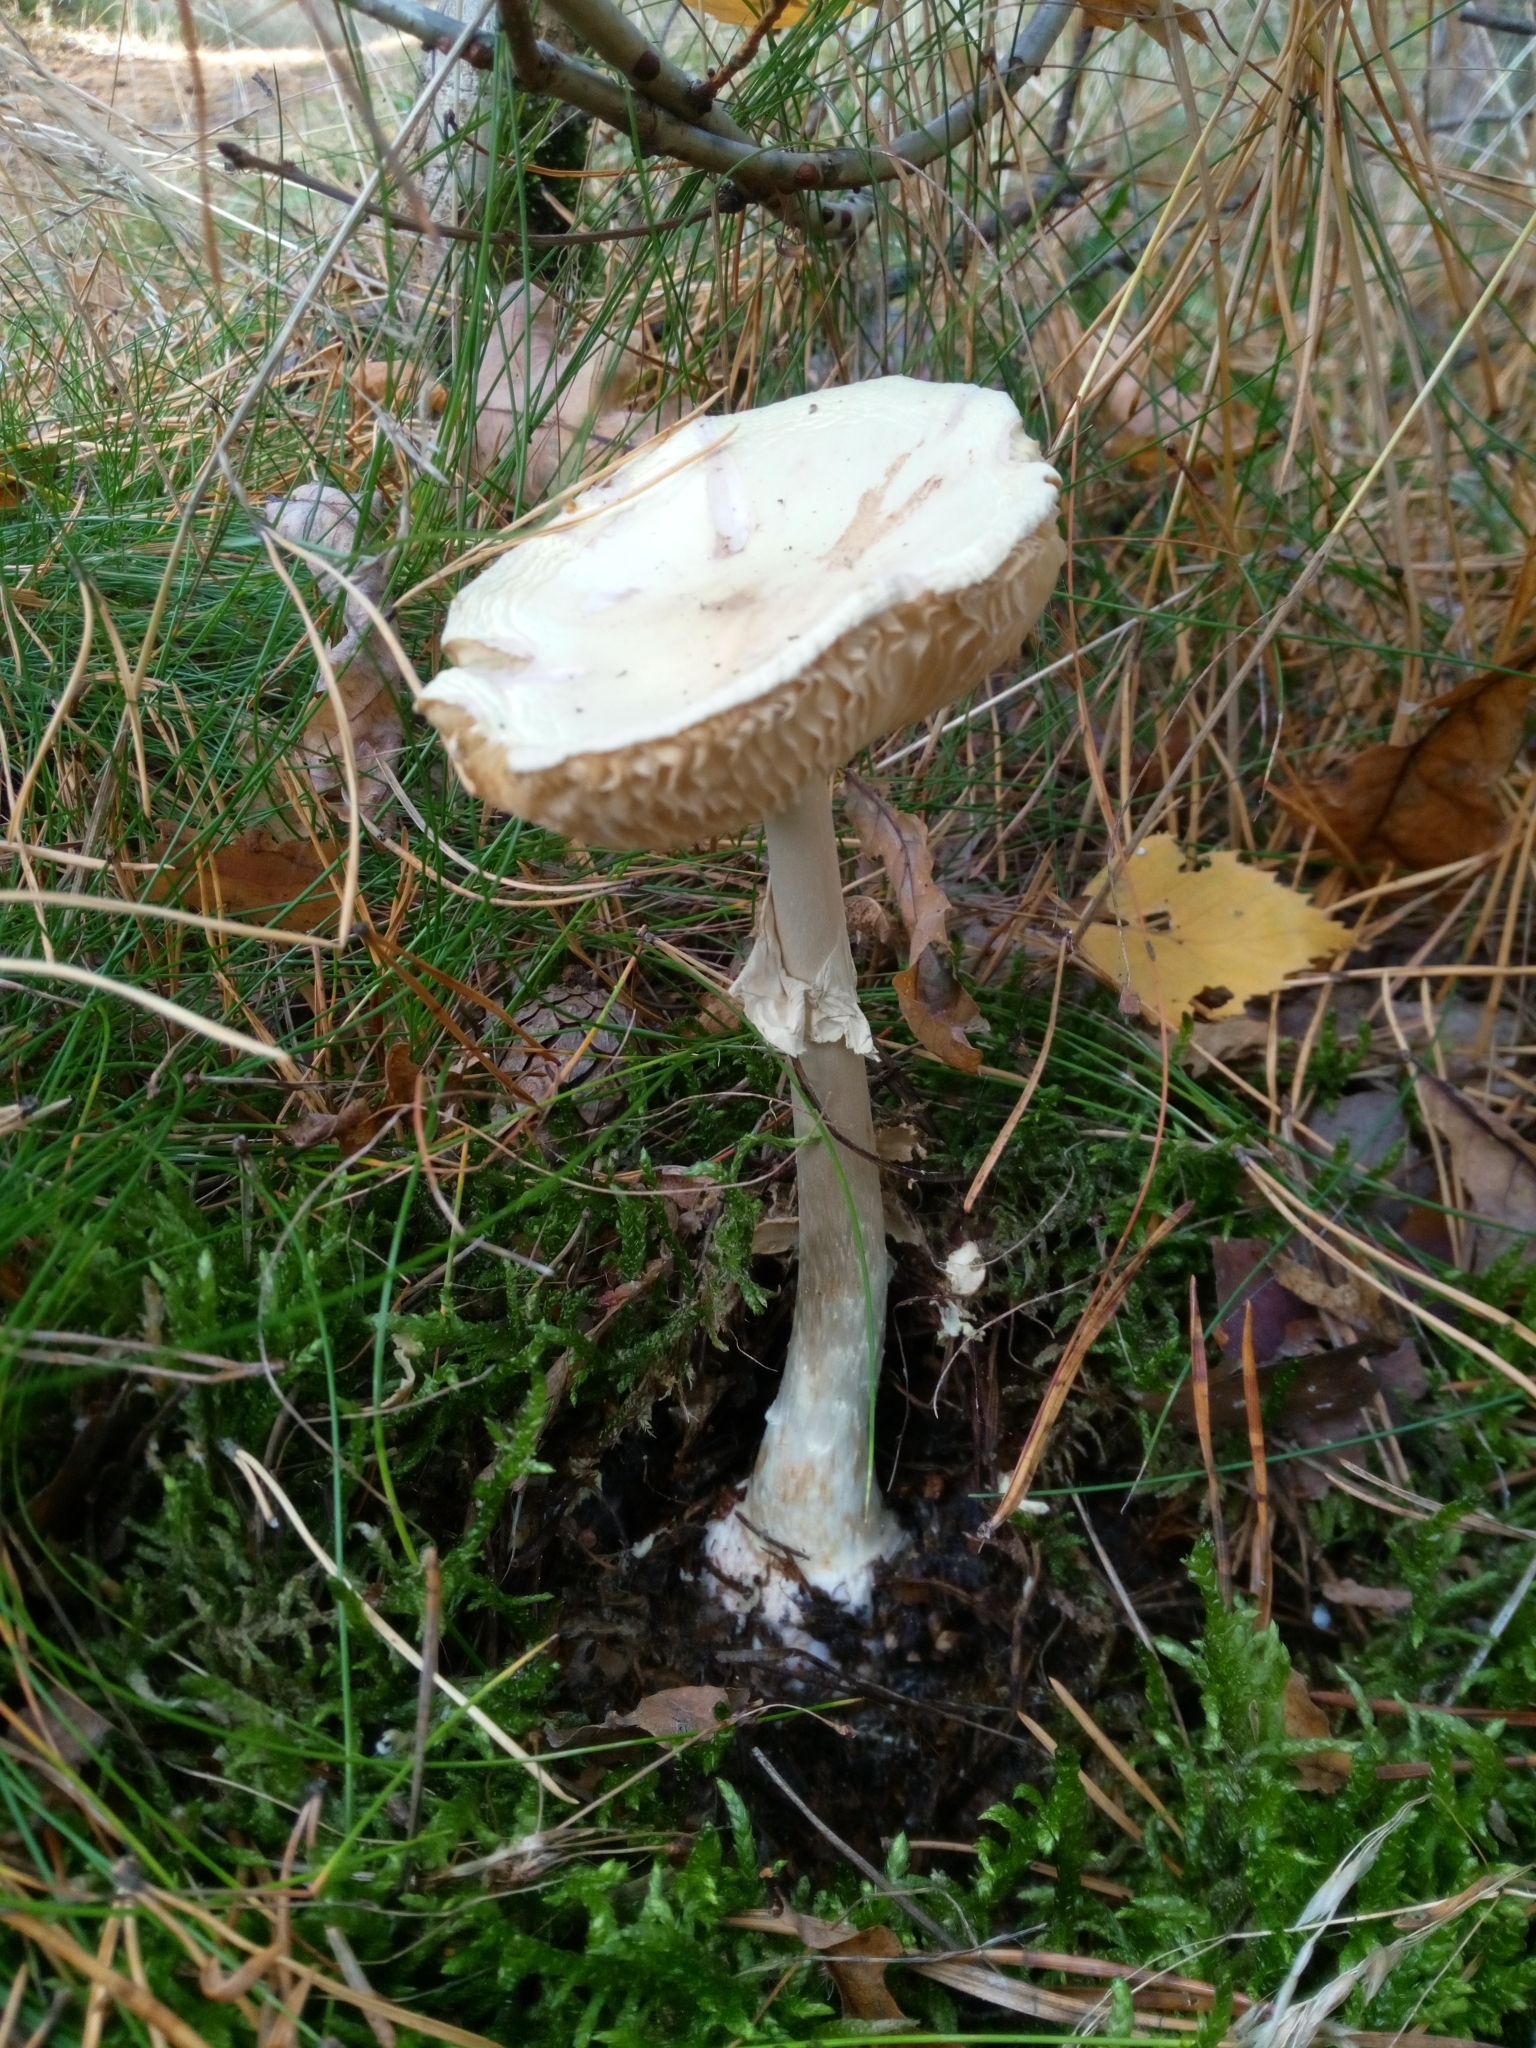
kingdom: Fungi
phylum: Basidiomycota
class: Agaricomycetes
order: Agaricales
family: Amanitaceae
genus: Amanita
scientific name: Amanita citrina
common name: False death-cap
